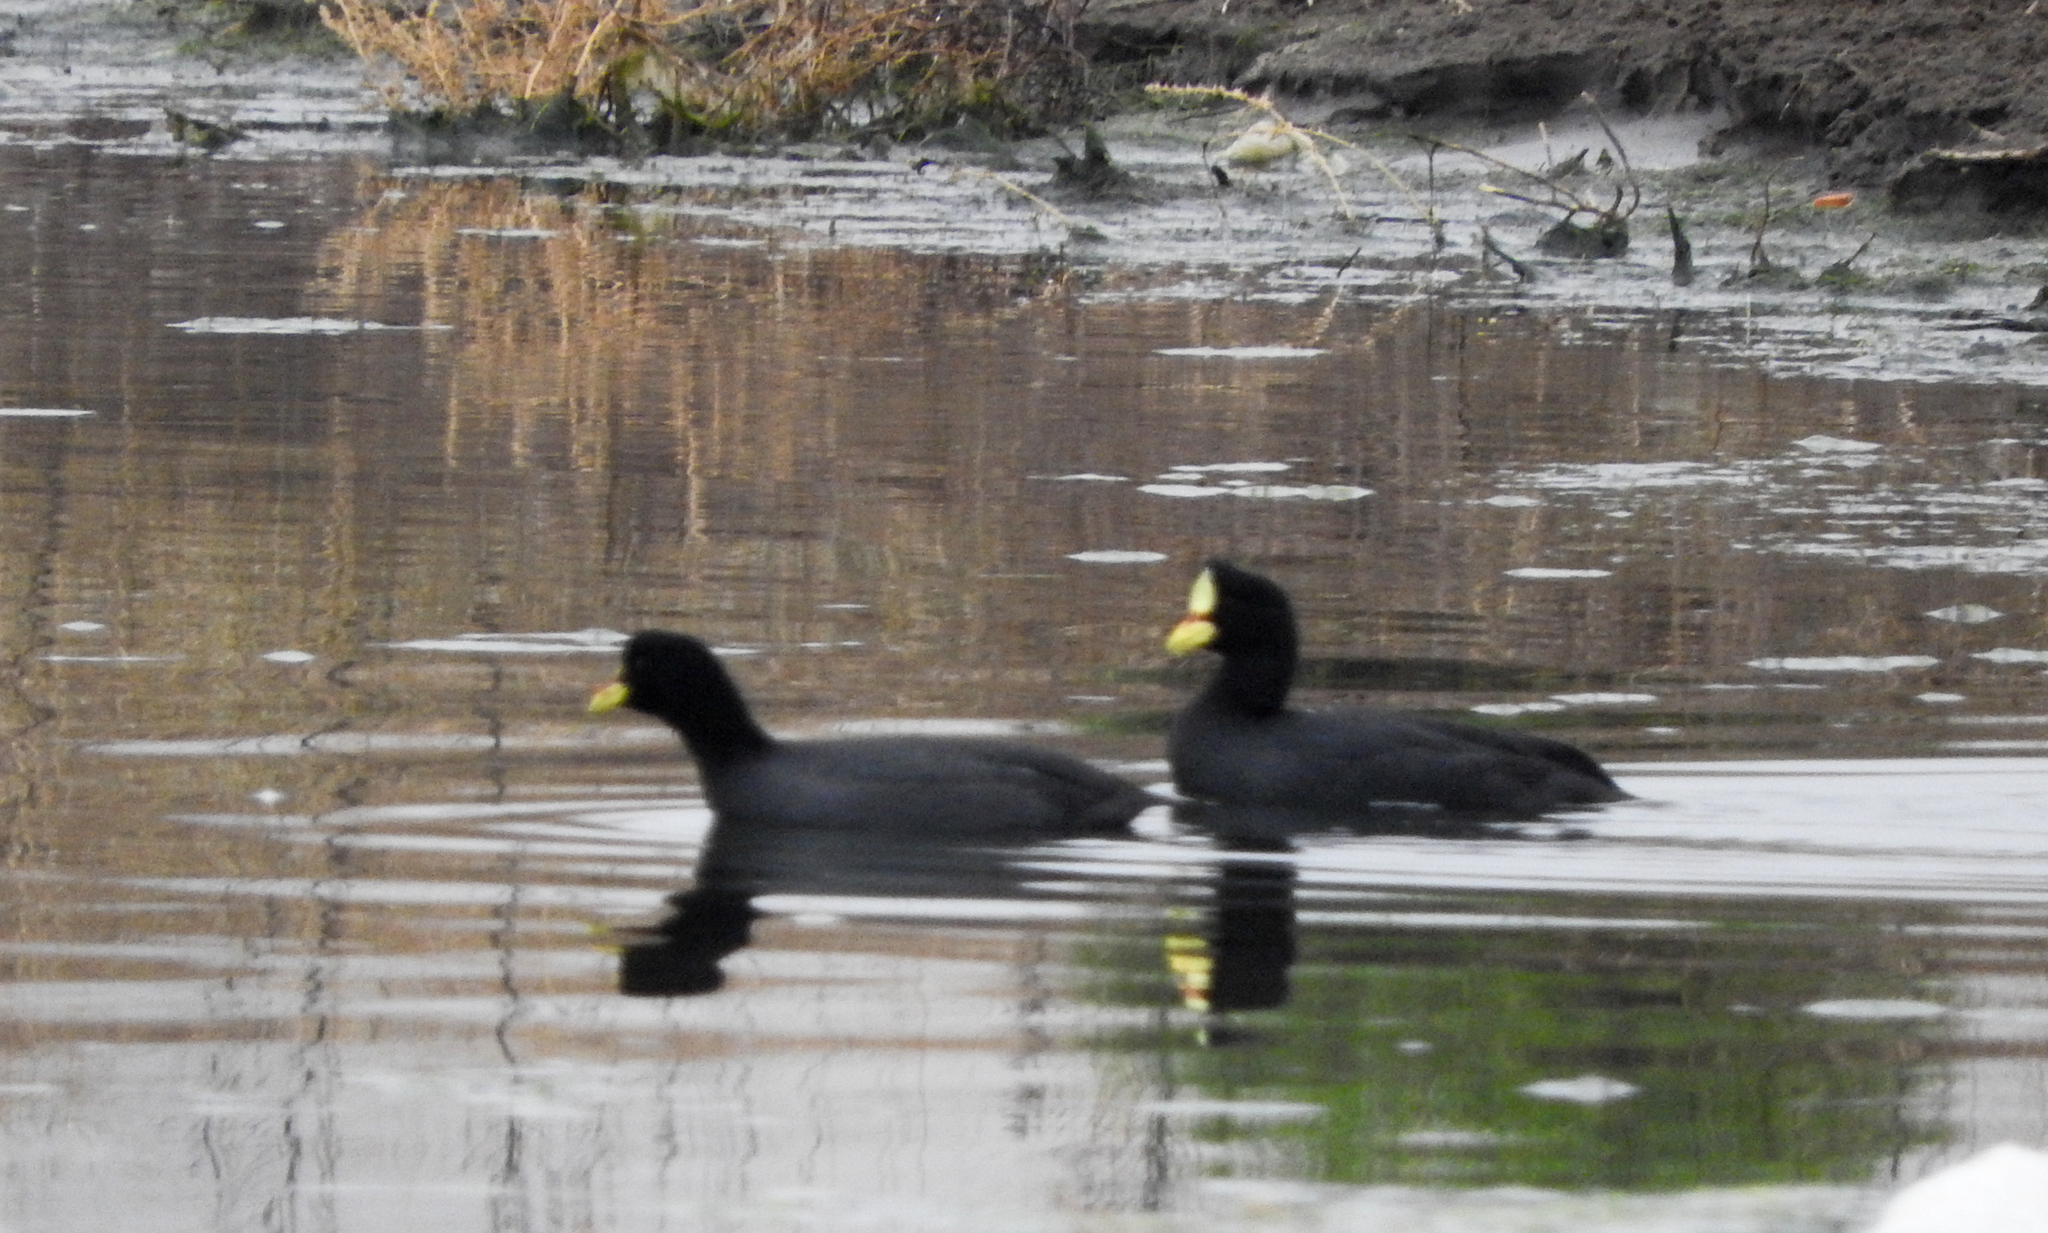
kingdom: Animalia
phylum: Chordata
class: Aves
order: Gruiformes
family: Rallidae
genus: Fulica
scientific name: Fulica armillata
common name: Red-gartered coot
